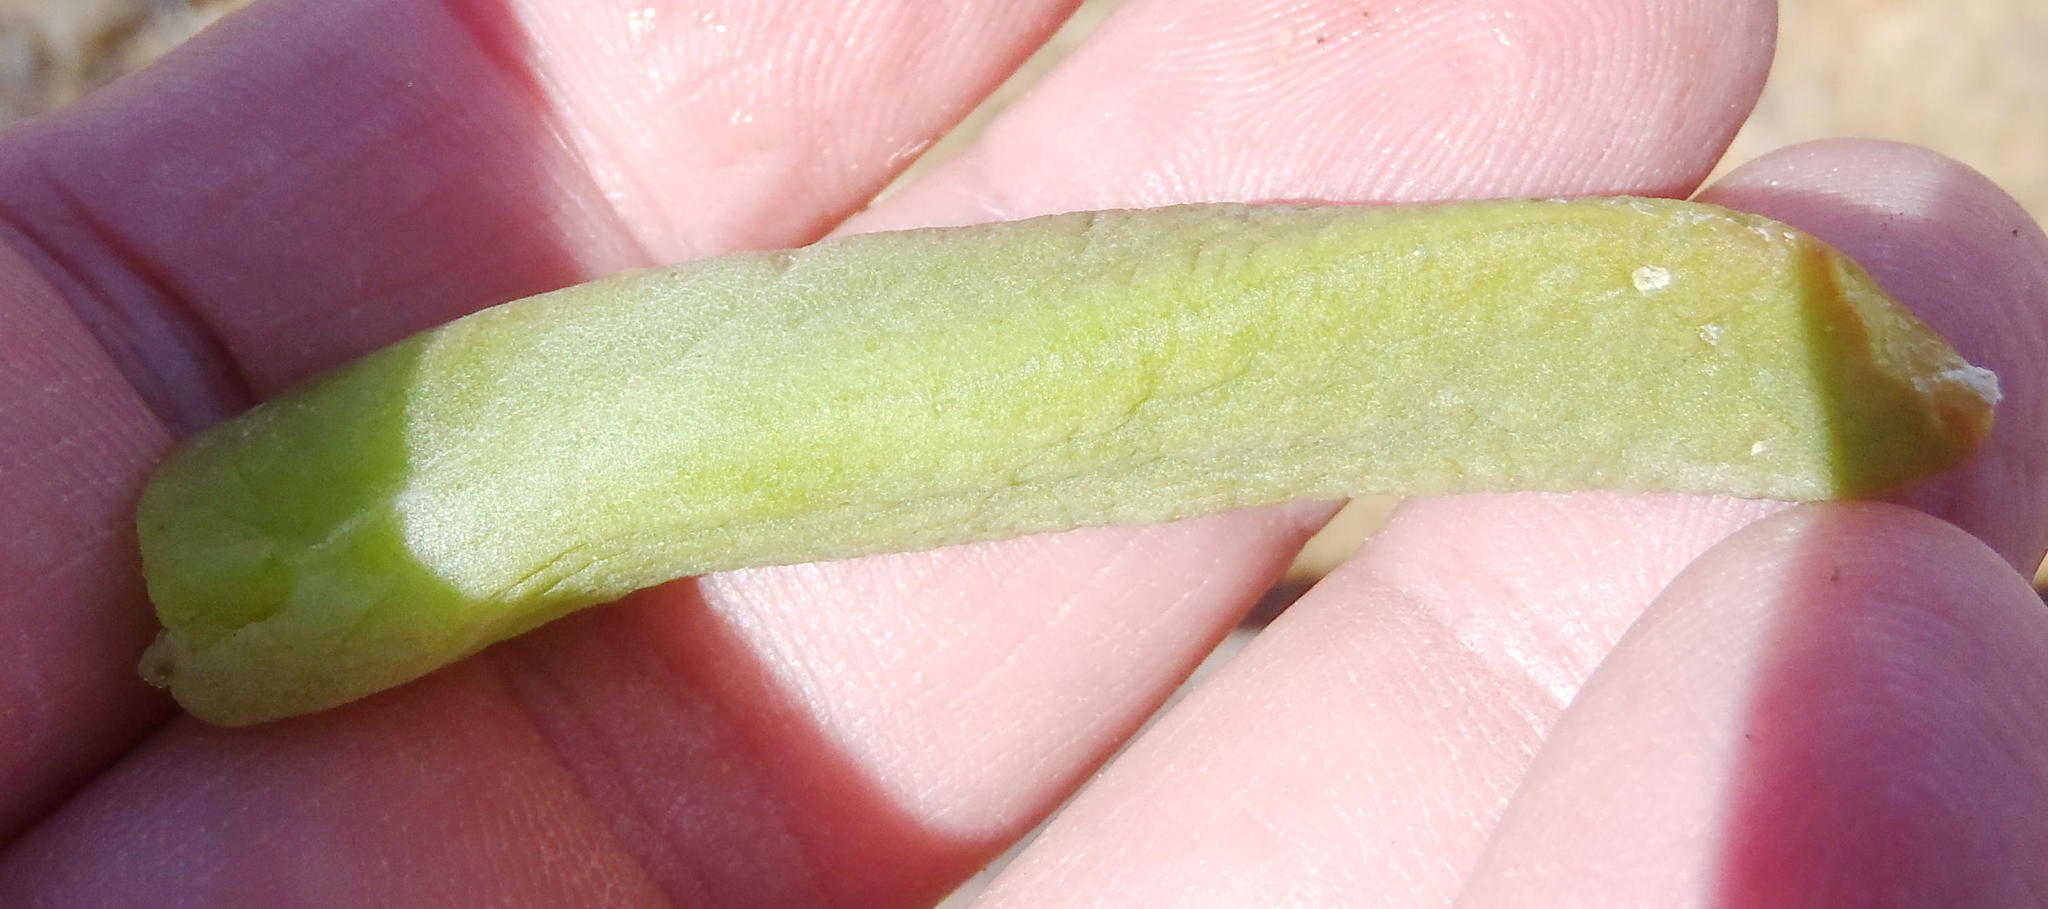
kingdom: Plantae
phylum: Tracheophyta
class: Magnoliopsida
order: Caryophyllales
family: Aizoaceae
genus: Glottiphyllum
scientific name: Glottiphyllum surrectum
